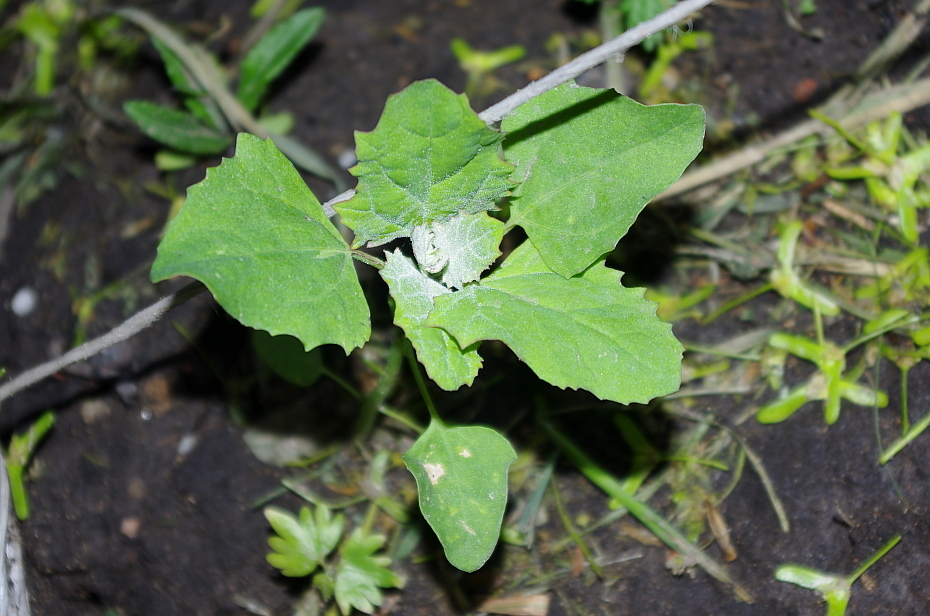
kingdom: Plantae
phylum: Tracheophyta
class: Magnoliopsida
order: Caryophyllales
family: Amaranthaceae
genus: Chenopodium
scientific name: Chenopodium album
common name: Fat-hen
